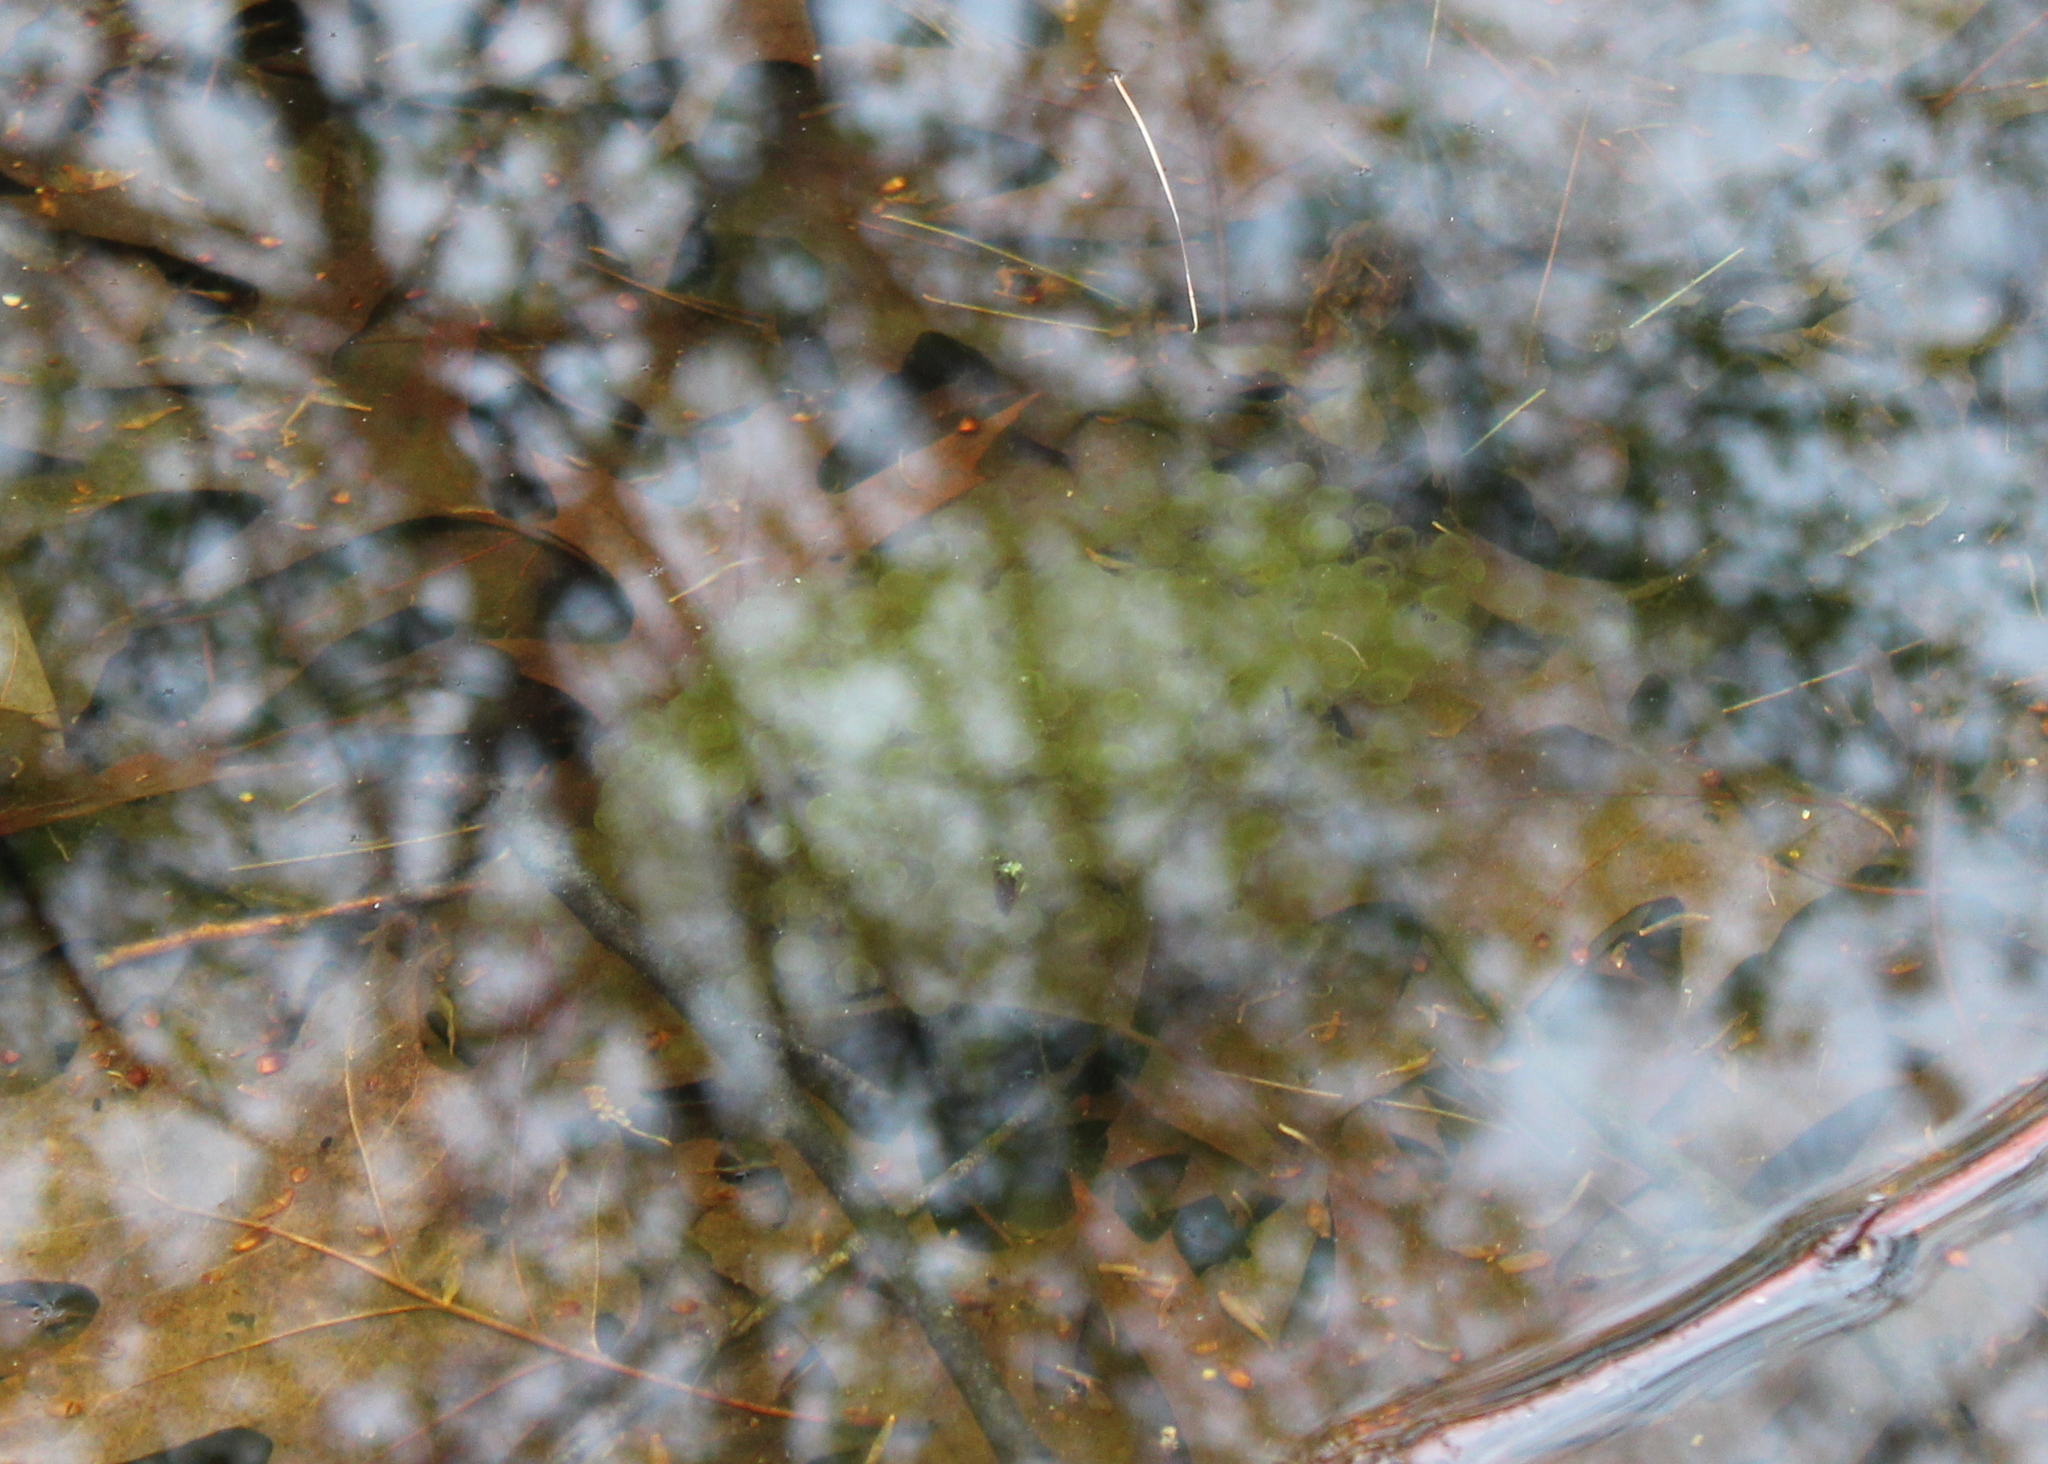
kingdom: Animalia
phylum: Chordata
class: Amphibia
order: Anura
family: Ranidae
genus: Lithobates
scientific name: Lithobates sylvaticus
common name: Wood frog
